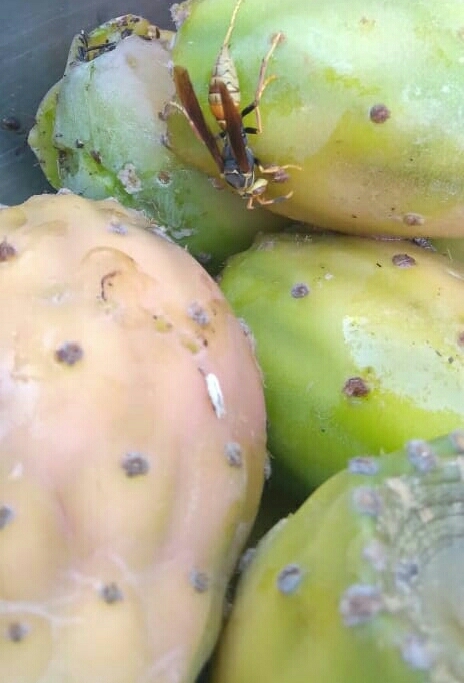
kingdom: Animalia
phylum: Arthropoda
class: Insecta
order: Hymenoptera
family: Eumenidae
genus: Polistes
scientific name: Polistes buyssoni
